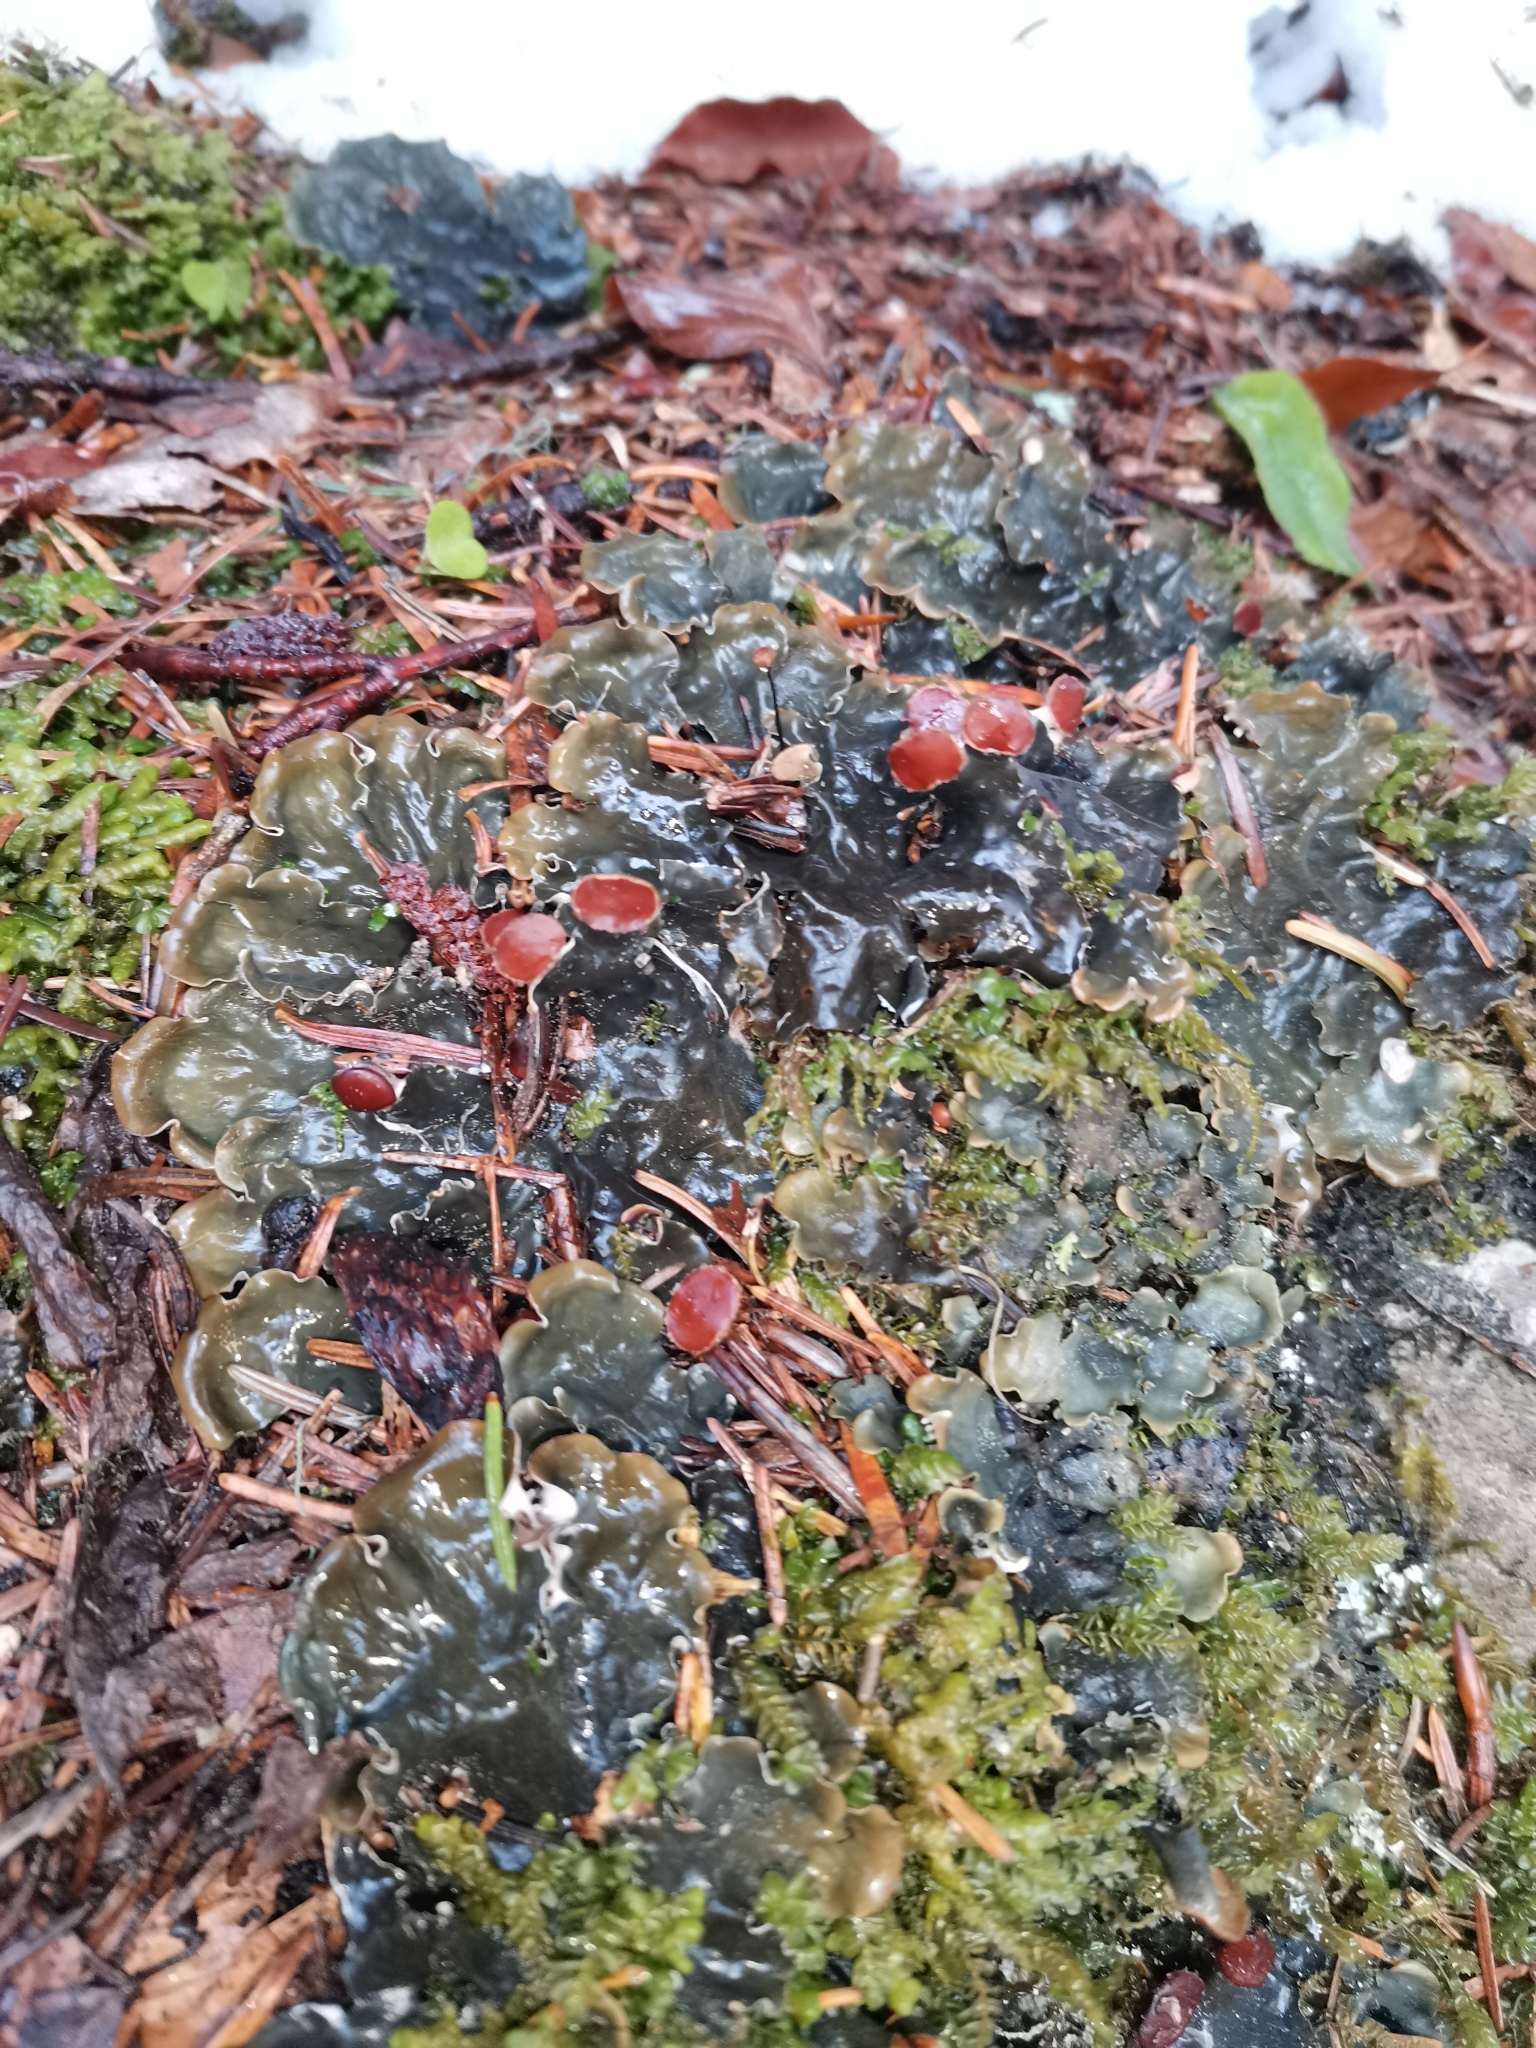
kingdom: Fungi
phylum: Ascomycota
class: Lecanoromycetes
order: Peltigerales
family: Peltigeraceae
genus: Peltigera
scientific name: Peltigera
